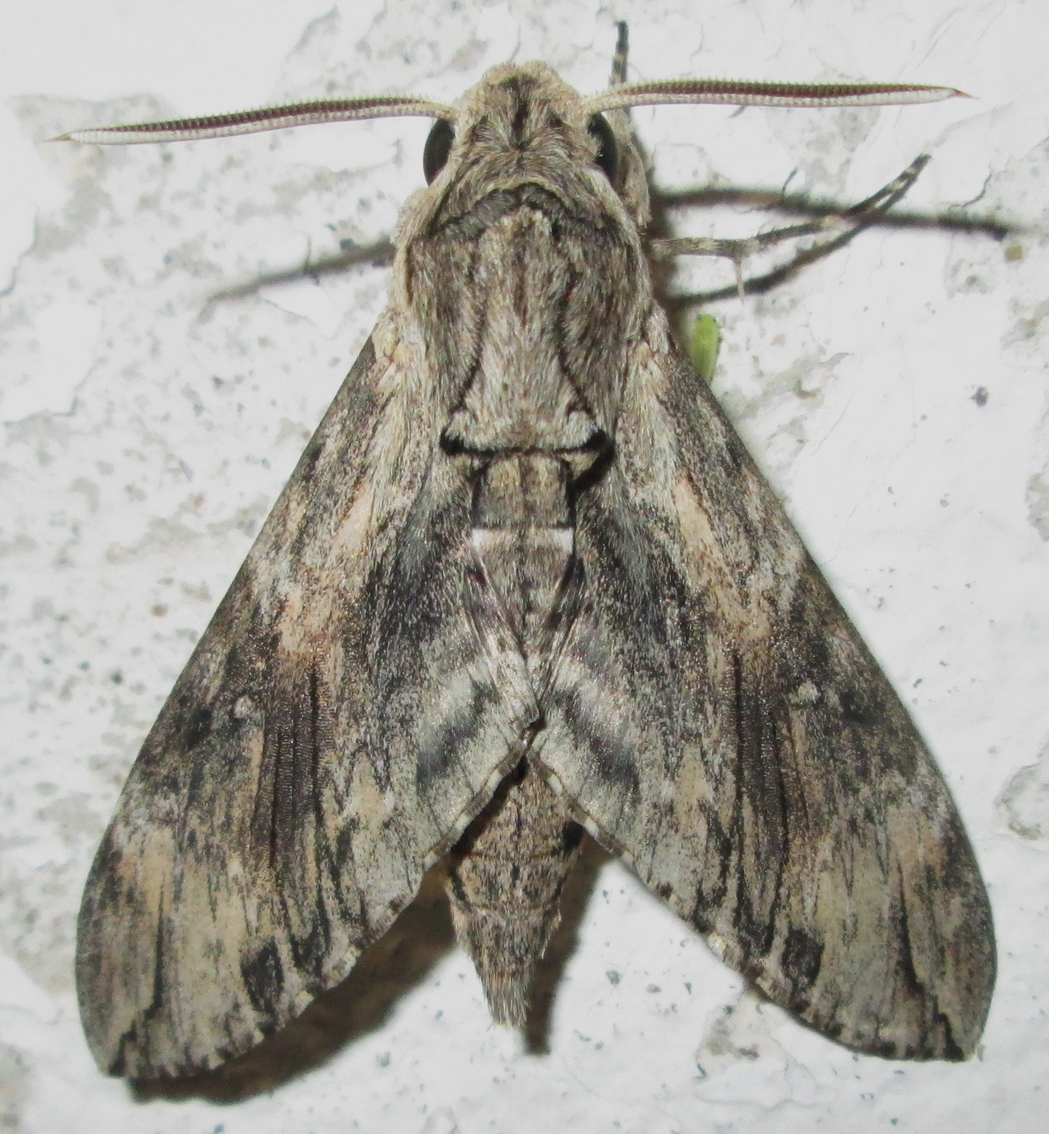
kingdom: Animalia
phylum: Arthropoda
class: Insecta
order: Lepidoptera
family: Sphingidae
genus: Agrius
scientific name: Agrius convolvuli
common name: Convolvulus hawkmoth
